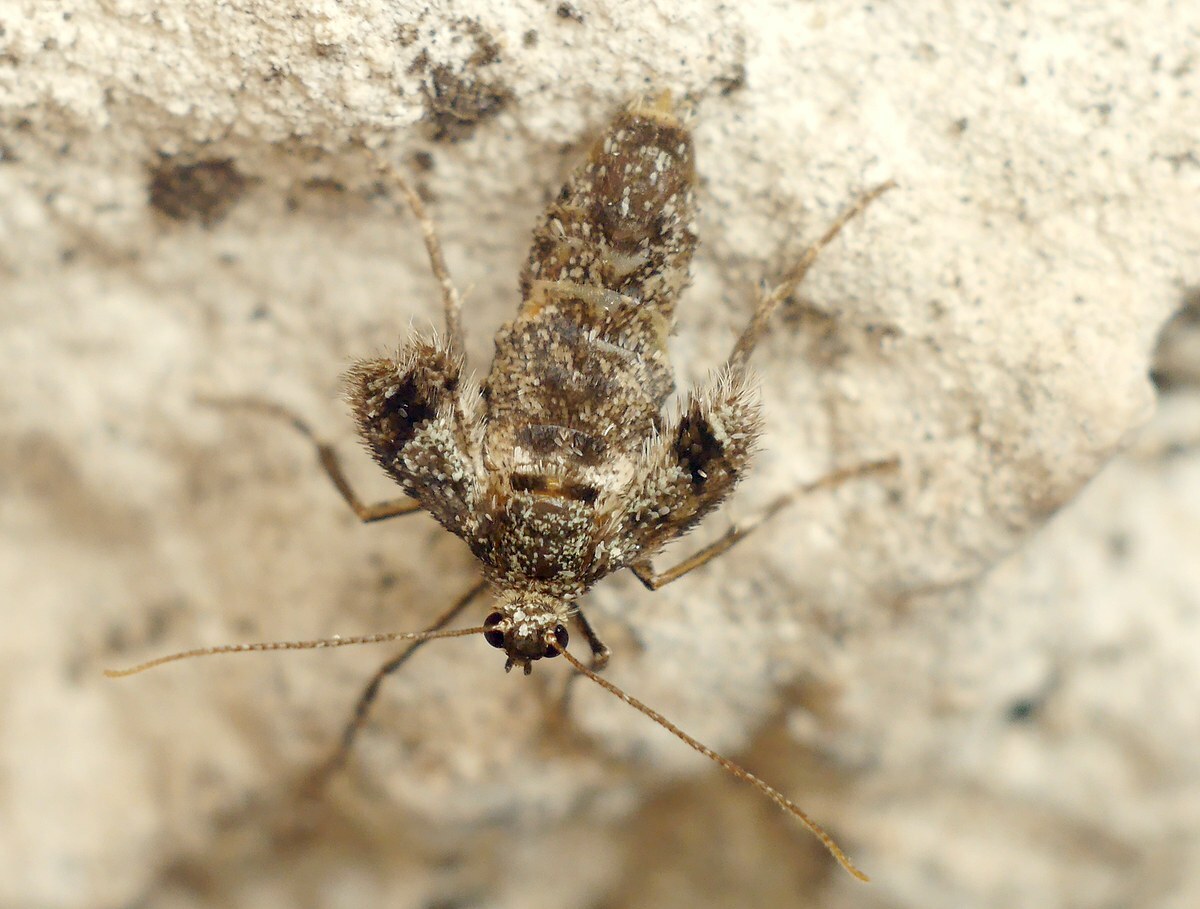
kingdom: Animalia
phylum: Arthropoda
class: Insecta
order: Lepidoptera
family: Geometridae
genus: Operophtera
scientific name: Operophtera brumata
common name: Winter moth
